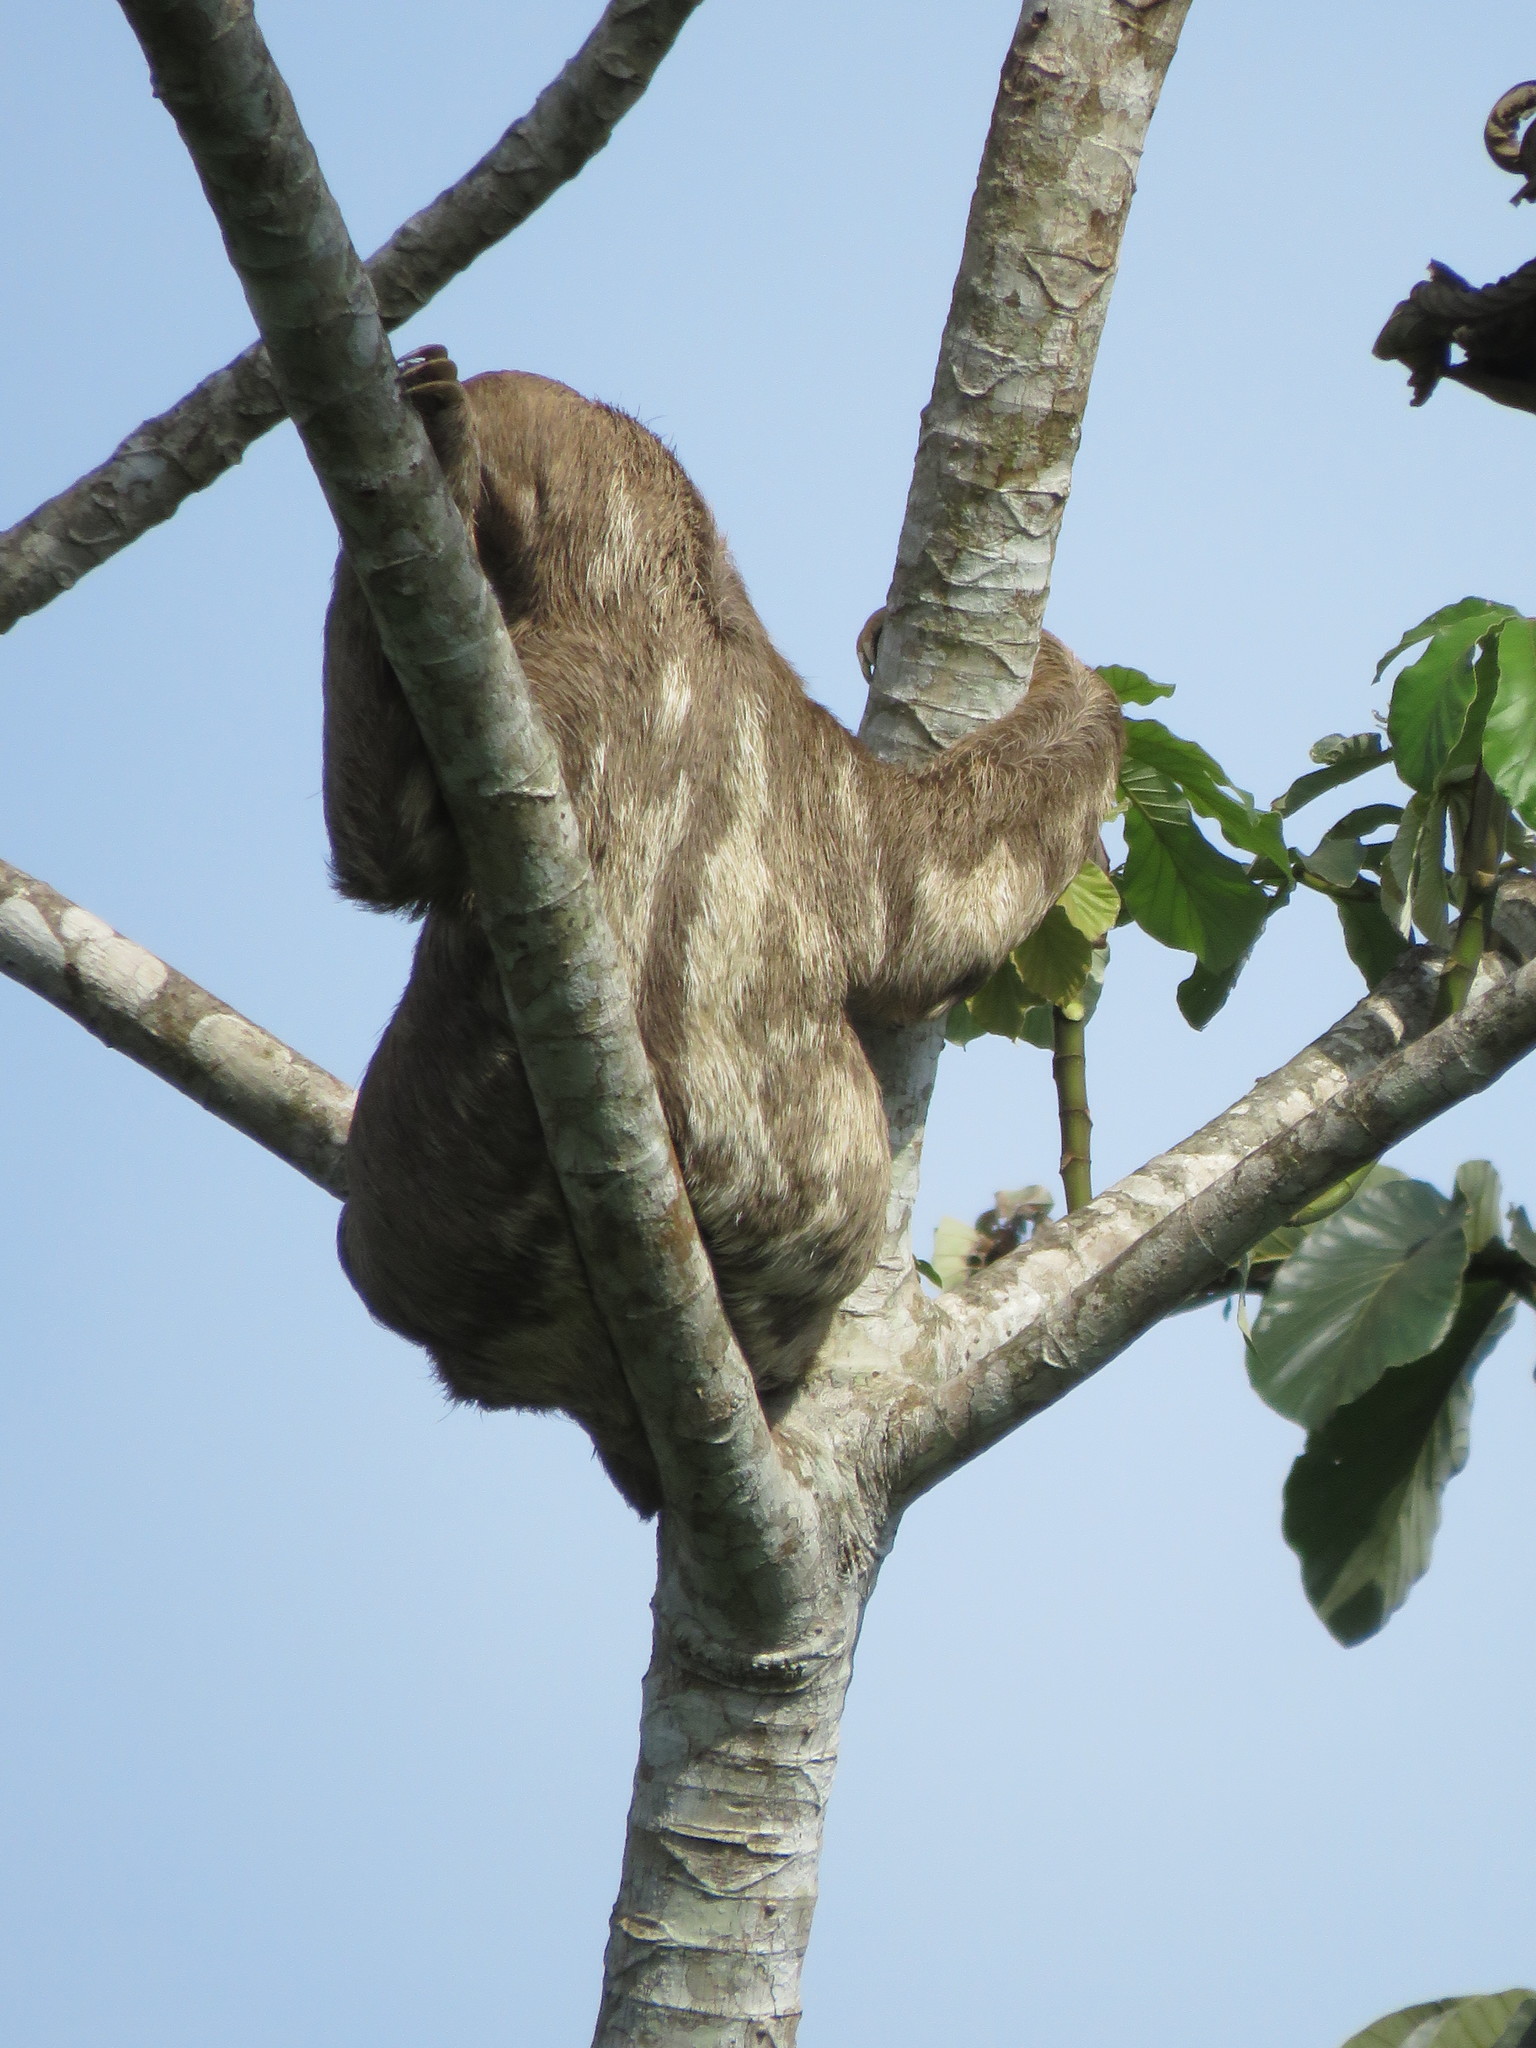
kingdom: Animalia
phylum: Chordata
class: Mammalia
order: Pilosa
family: Bradypodidae
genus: Bradypus
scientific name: Bradypus variegatus
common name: Brown-throated three-toed sloth
